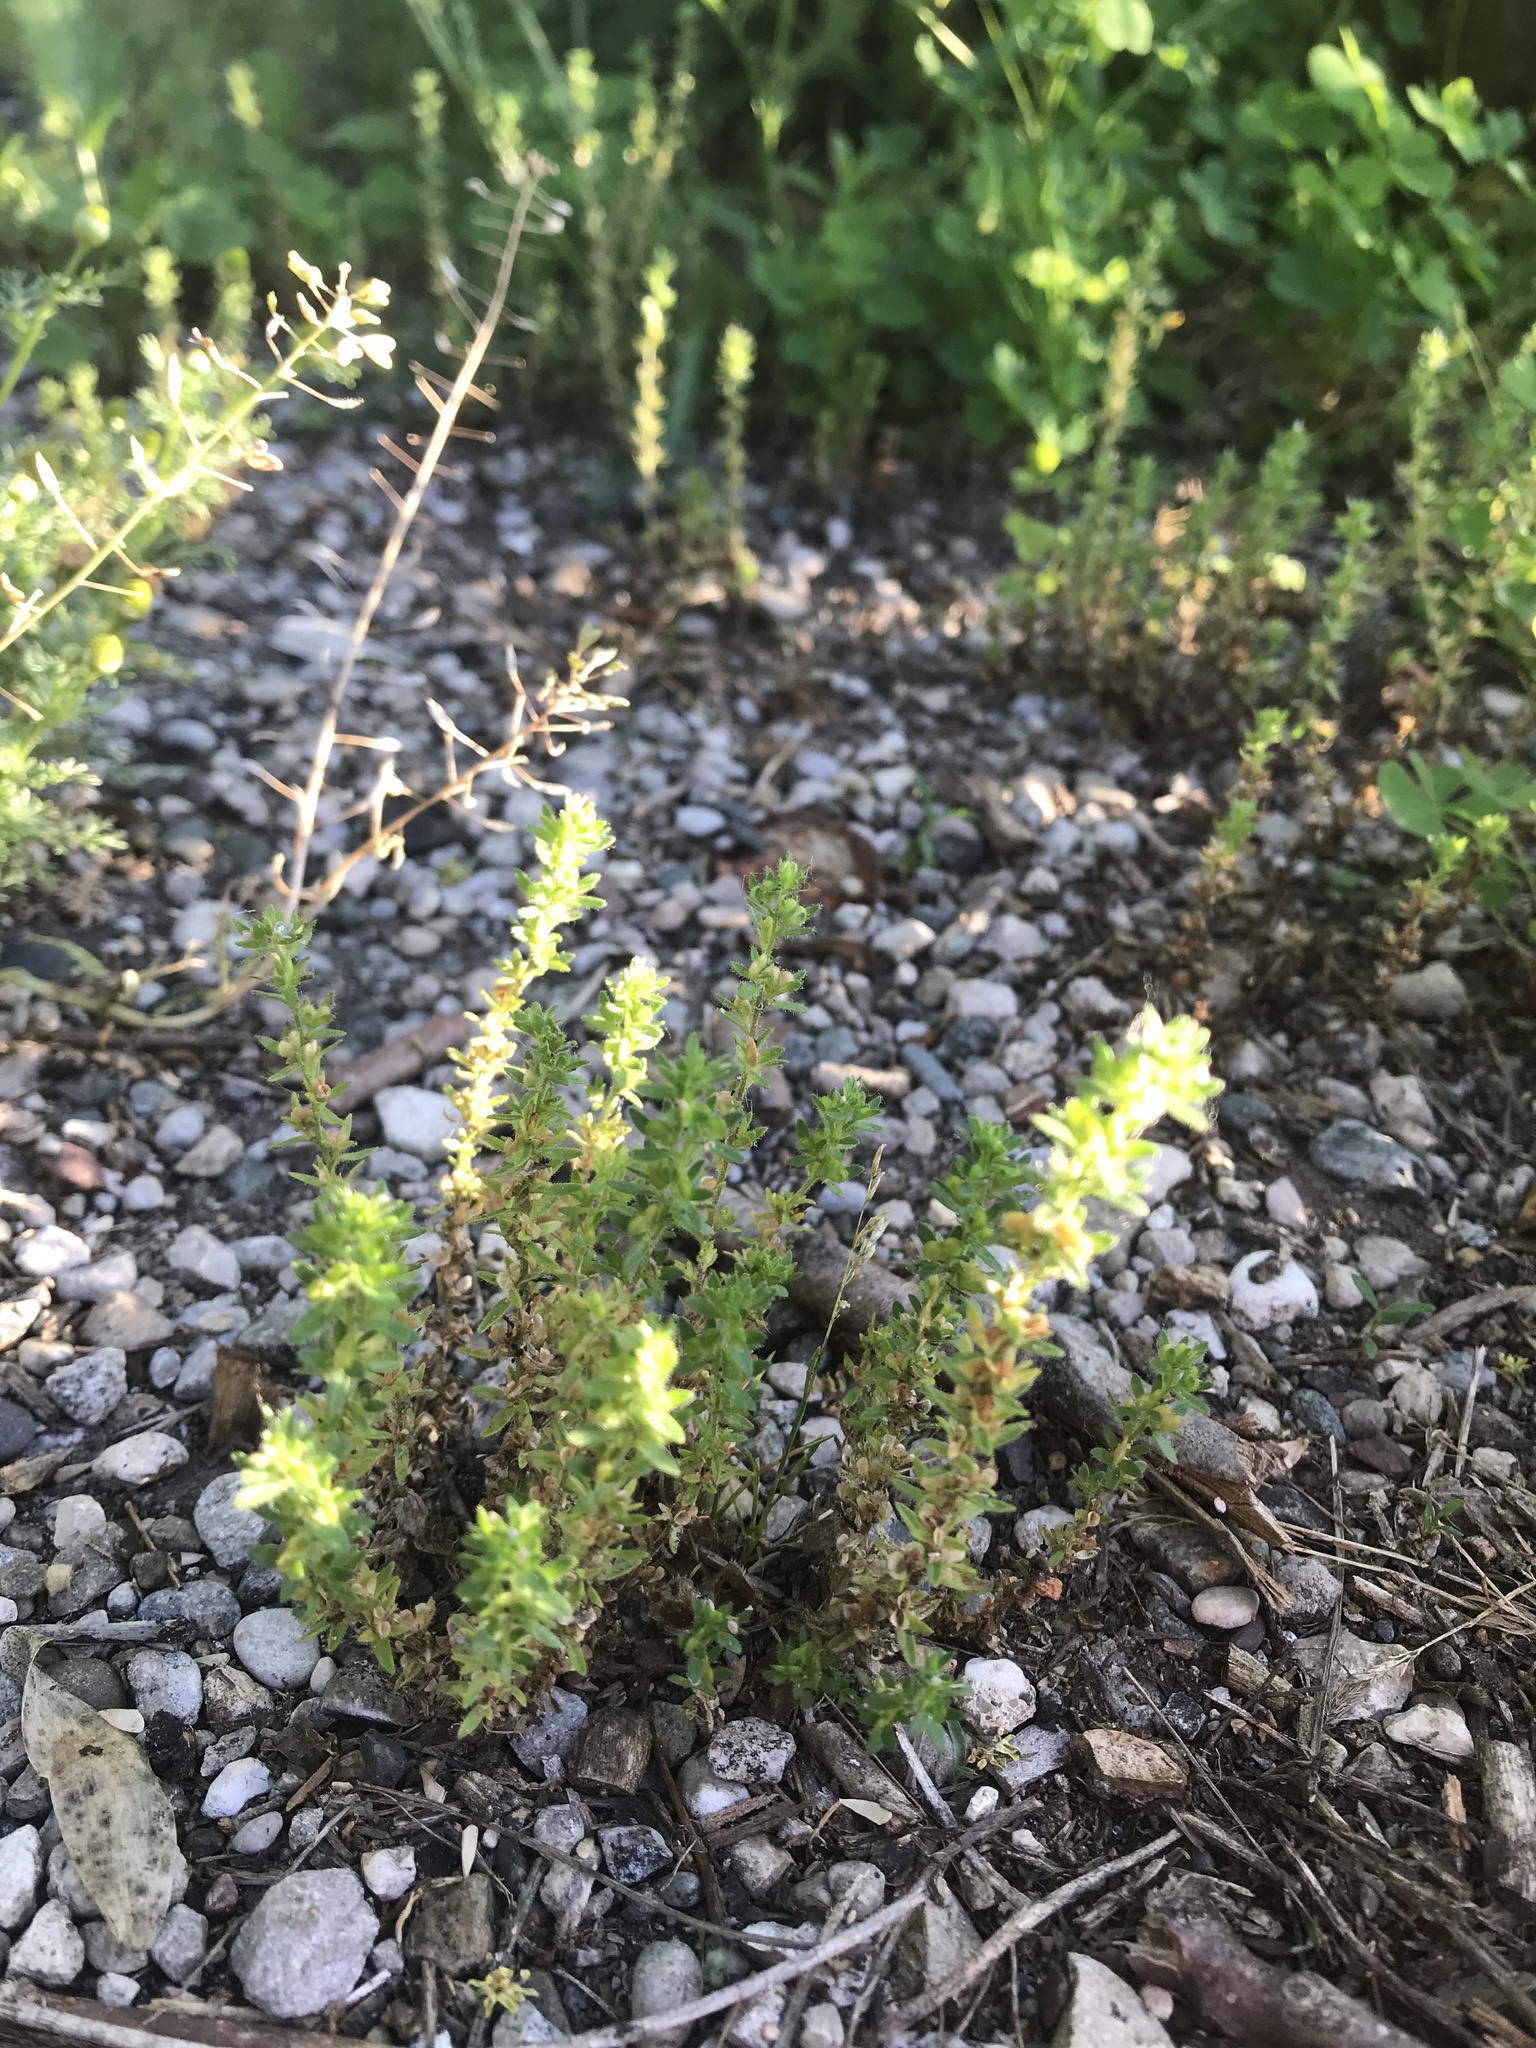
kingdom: Plantae
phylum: Tracheophyta
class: Magnoliopsida
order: Lamiales
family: Plantaginaceae
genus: Veronica
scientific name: Veronica arvensis
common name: Corn speedwell
